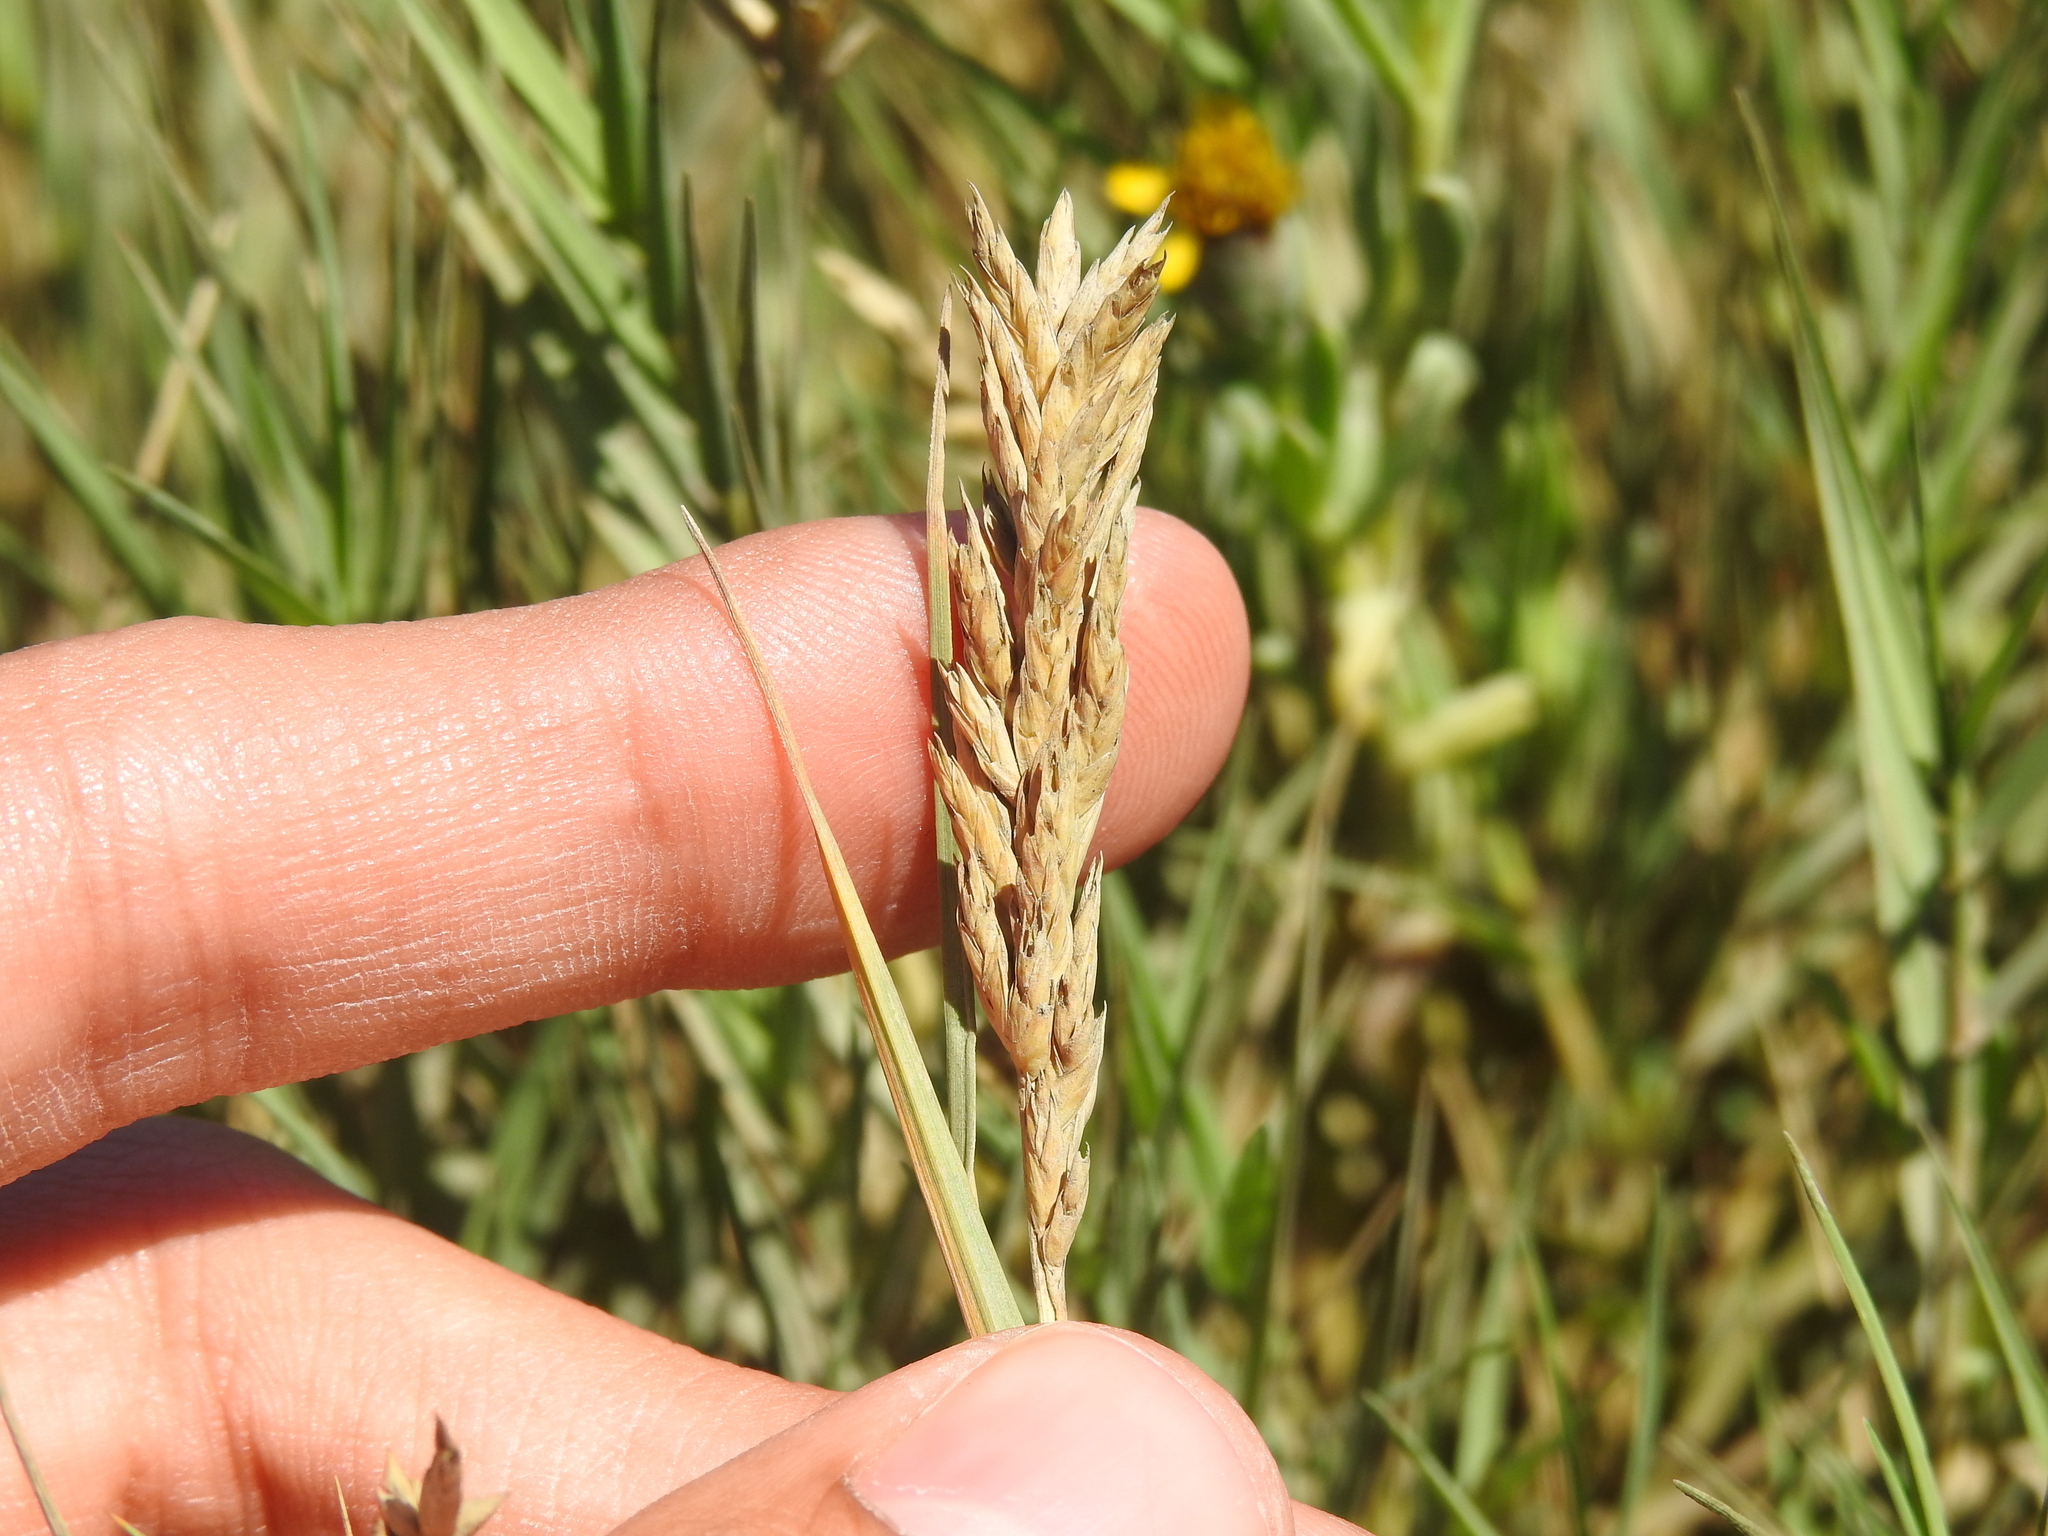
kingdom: Plantae
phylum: Tracheophyta
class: Liliopsida
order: Poales
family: Poaceae
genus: Distichlis
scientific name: Distichlis spicata
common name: Saltgrass
